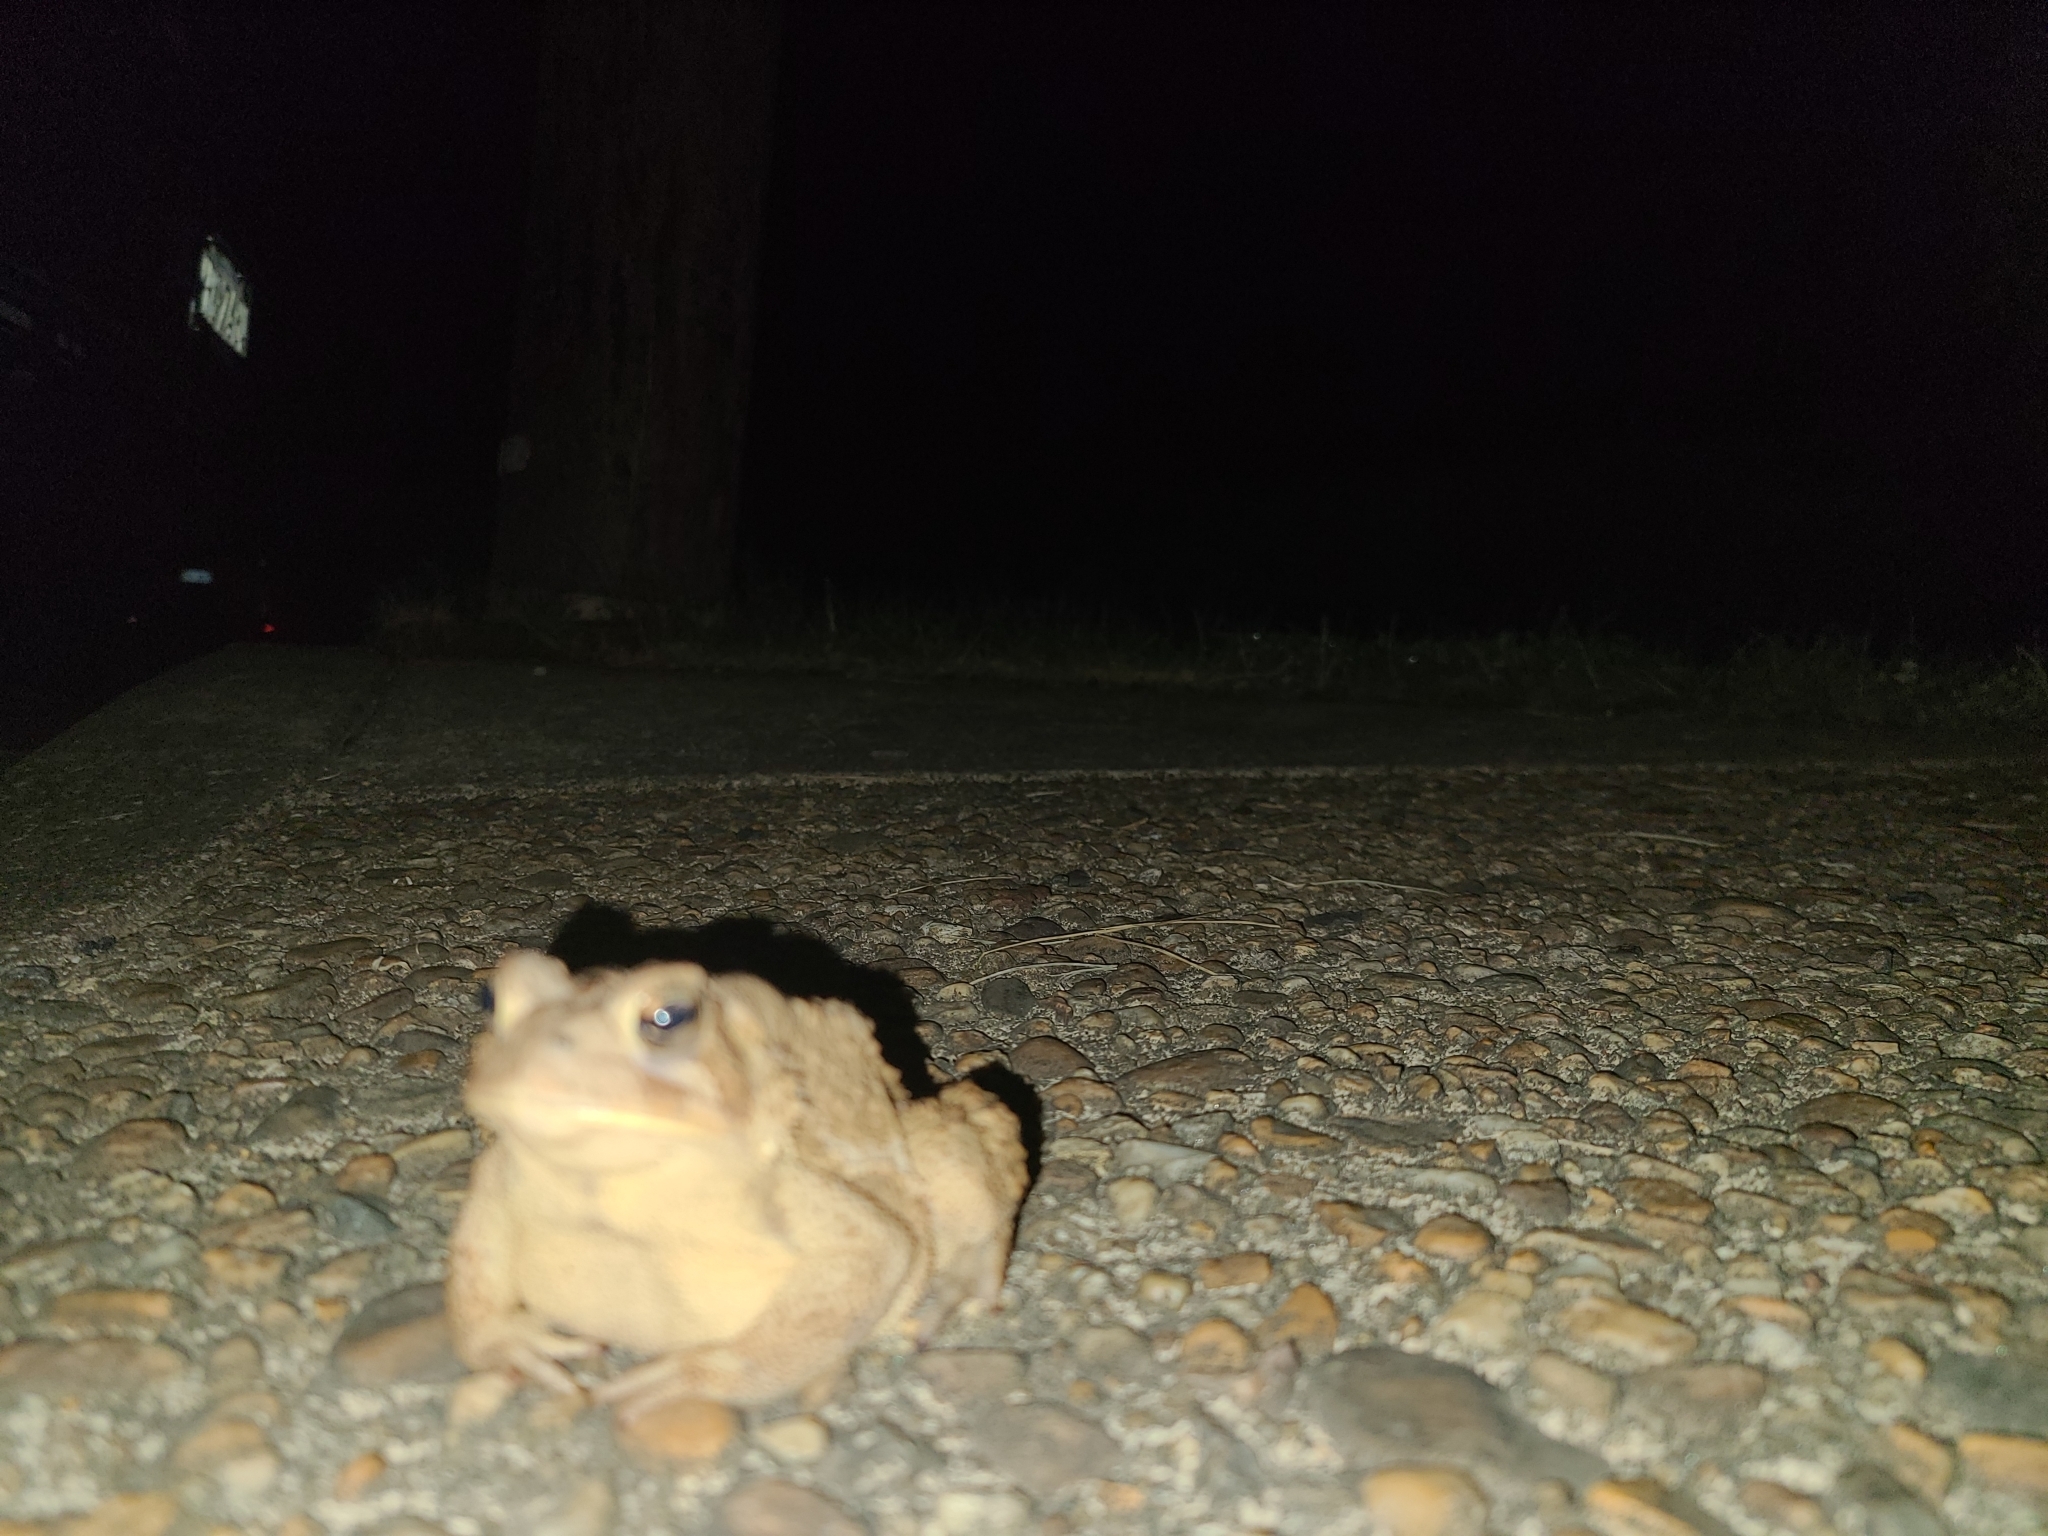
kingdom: Animalia
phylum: Chordata
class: Amphibia
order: Anura
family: Bufonidae
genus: Anaxyrus
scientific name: Anaxyrus americanus
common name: American toad
